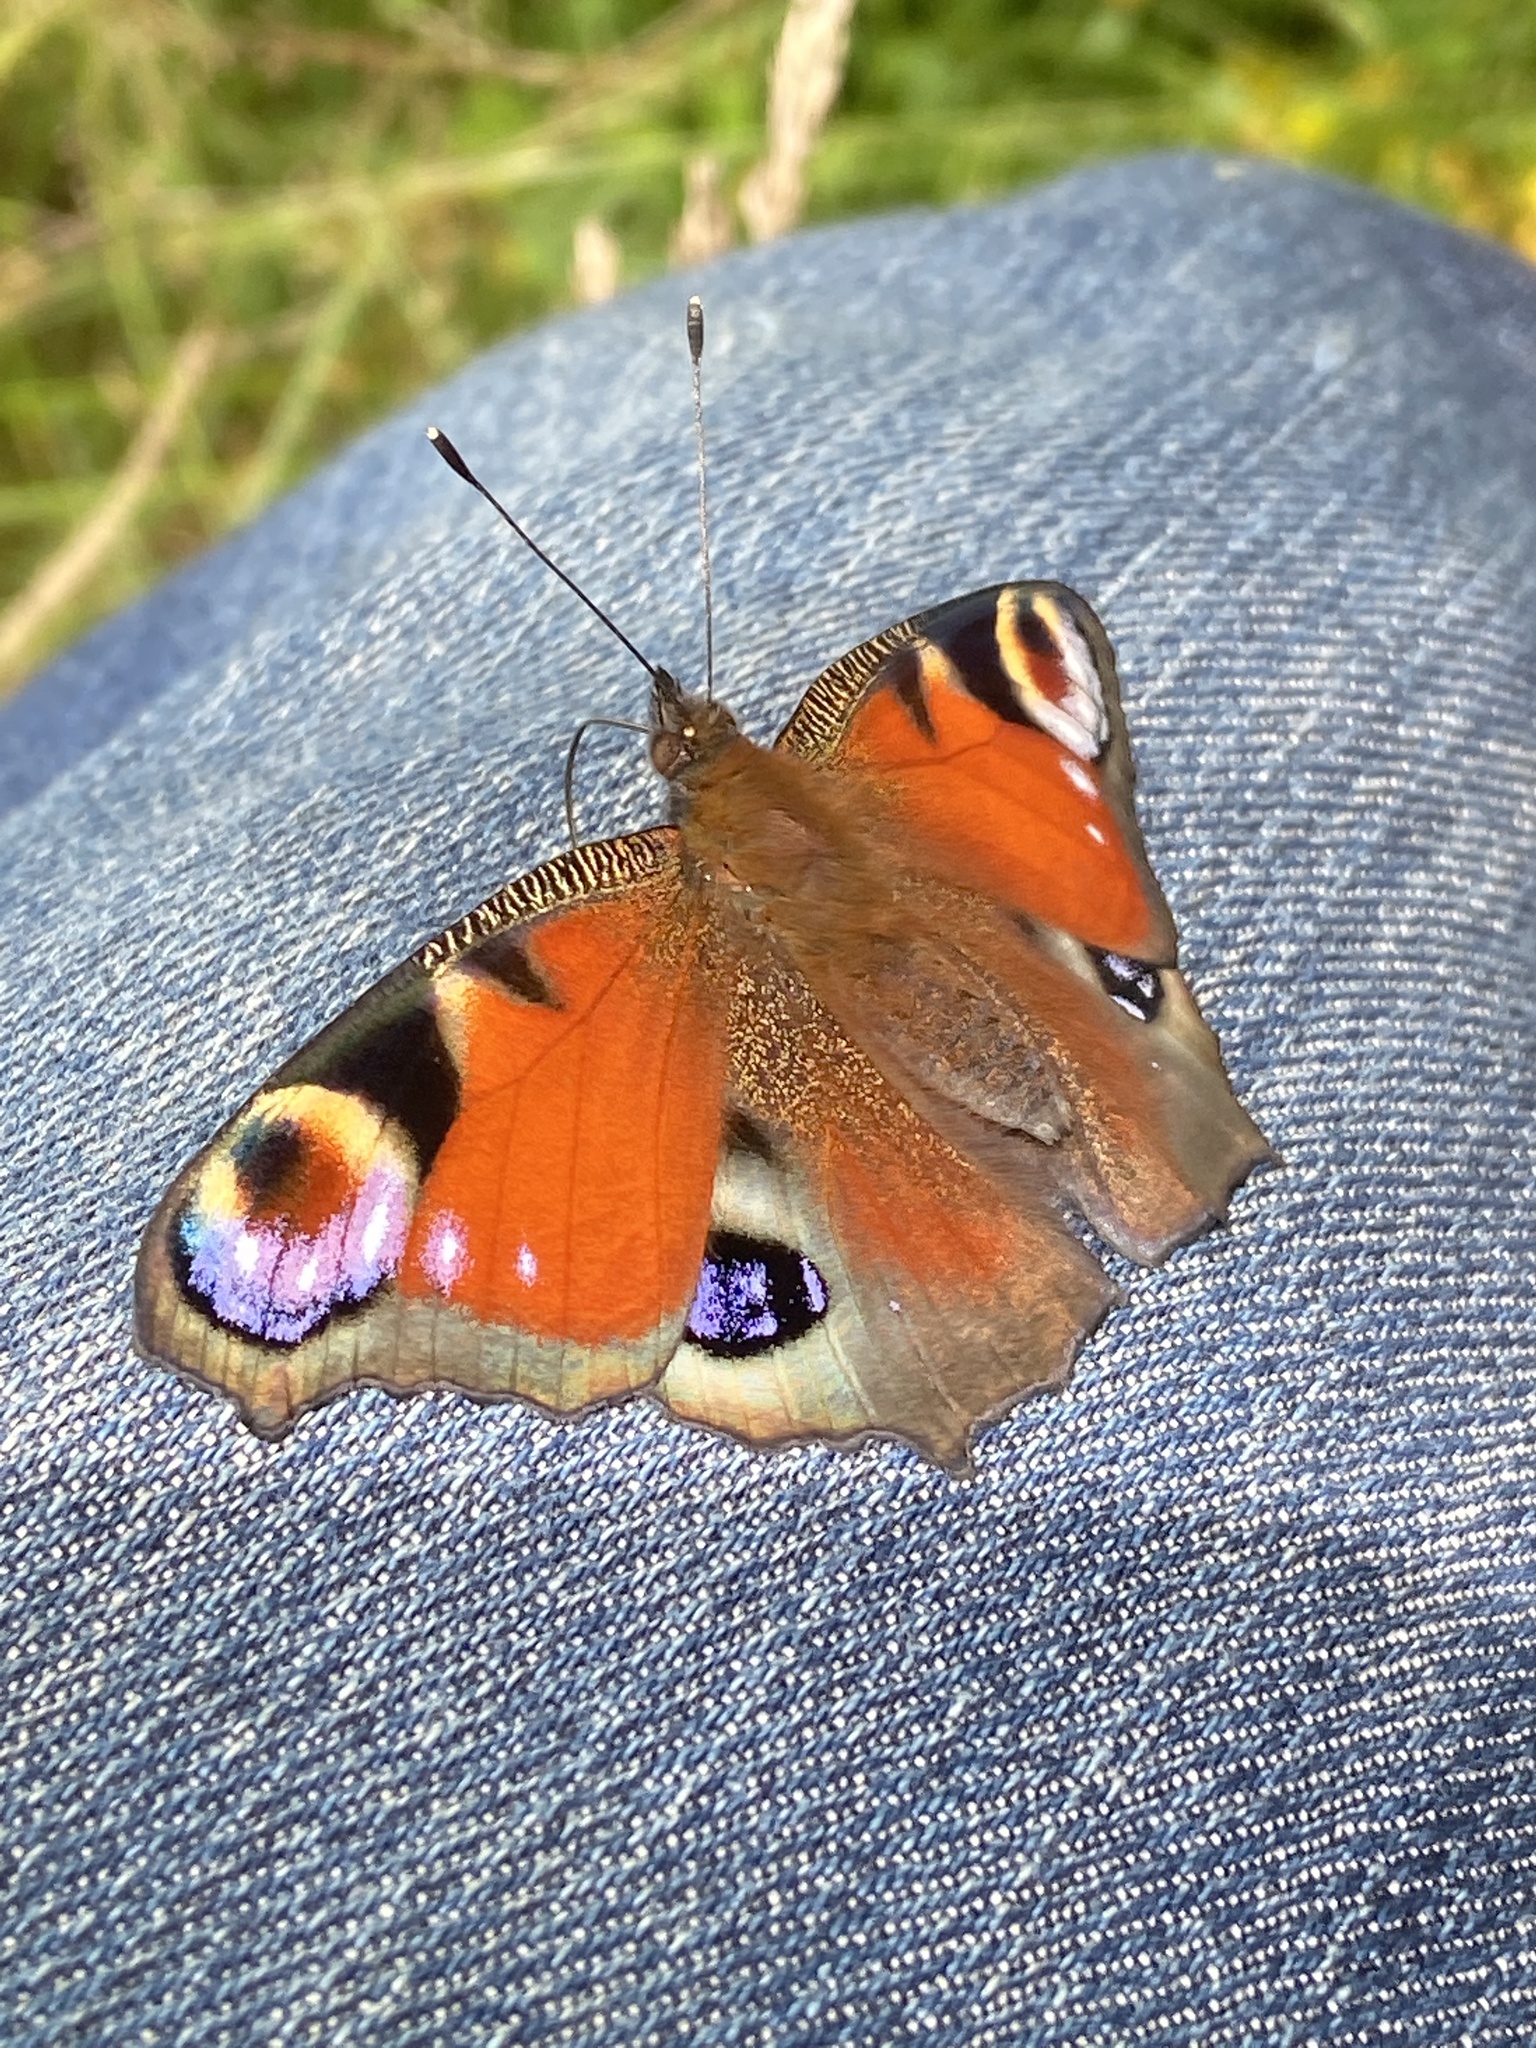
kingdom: Animalia
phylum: Arthropoda
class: Insecta
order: Lepidoptera
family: Nymphalidae
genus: Aglais
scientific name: Aglais io
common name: Peacock
